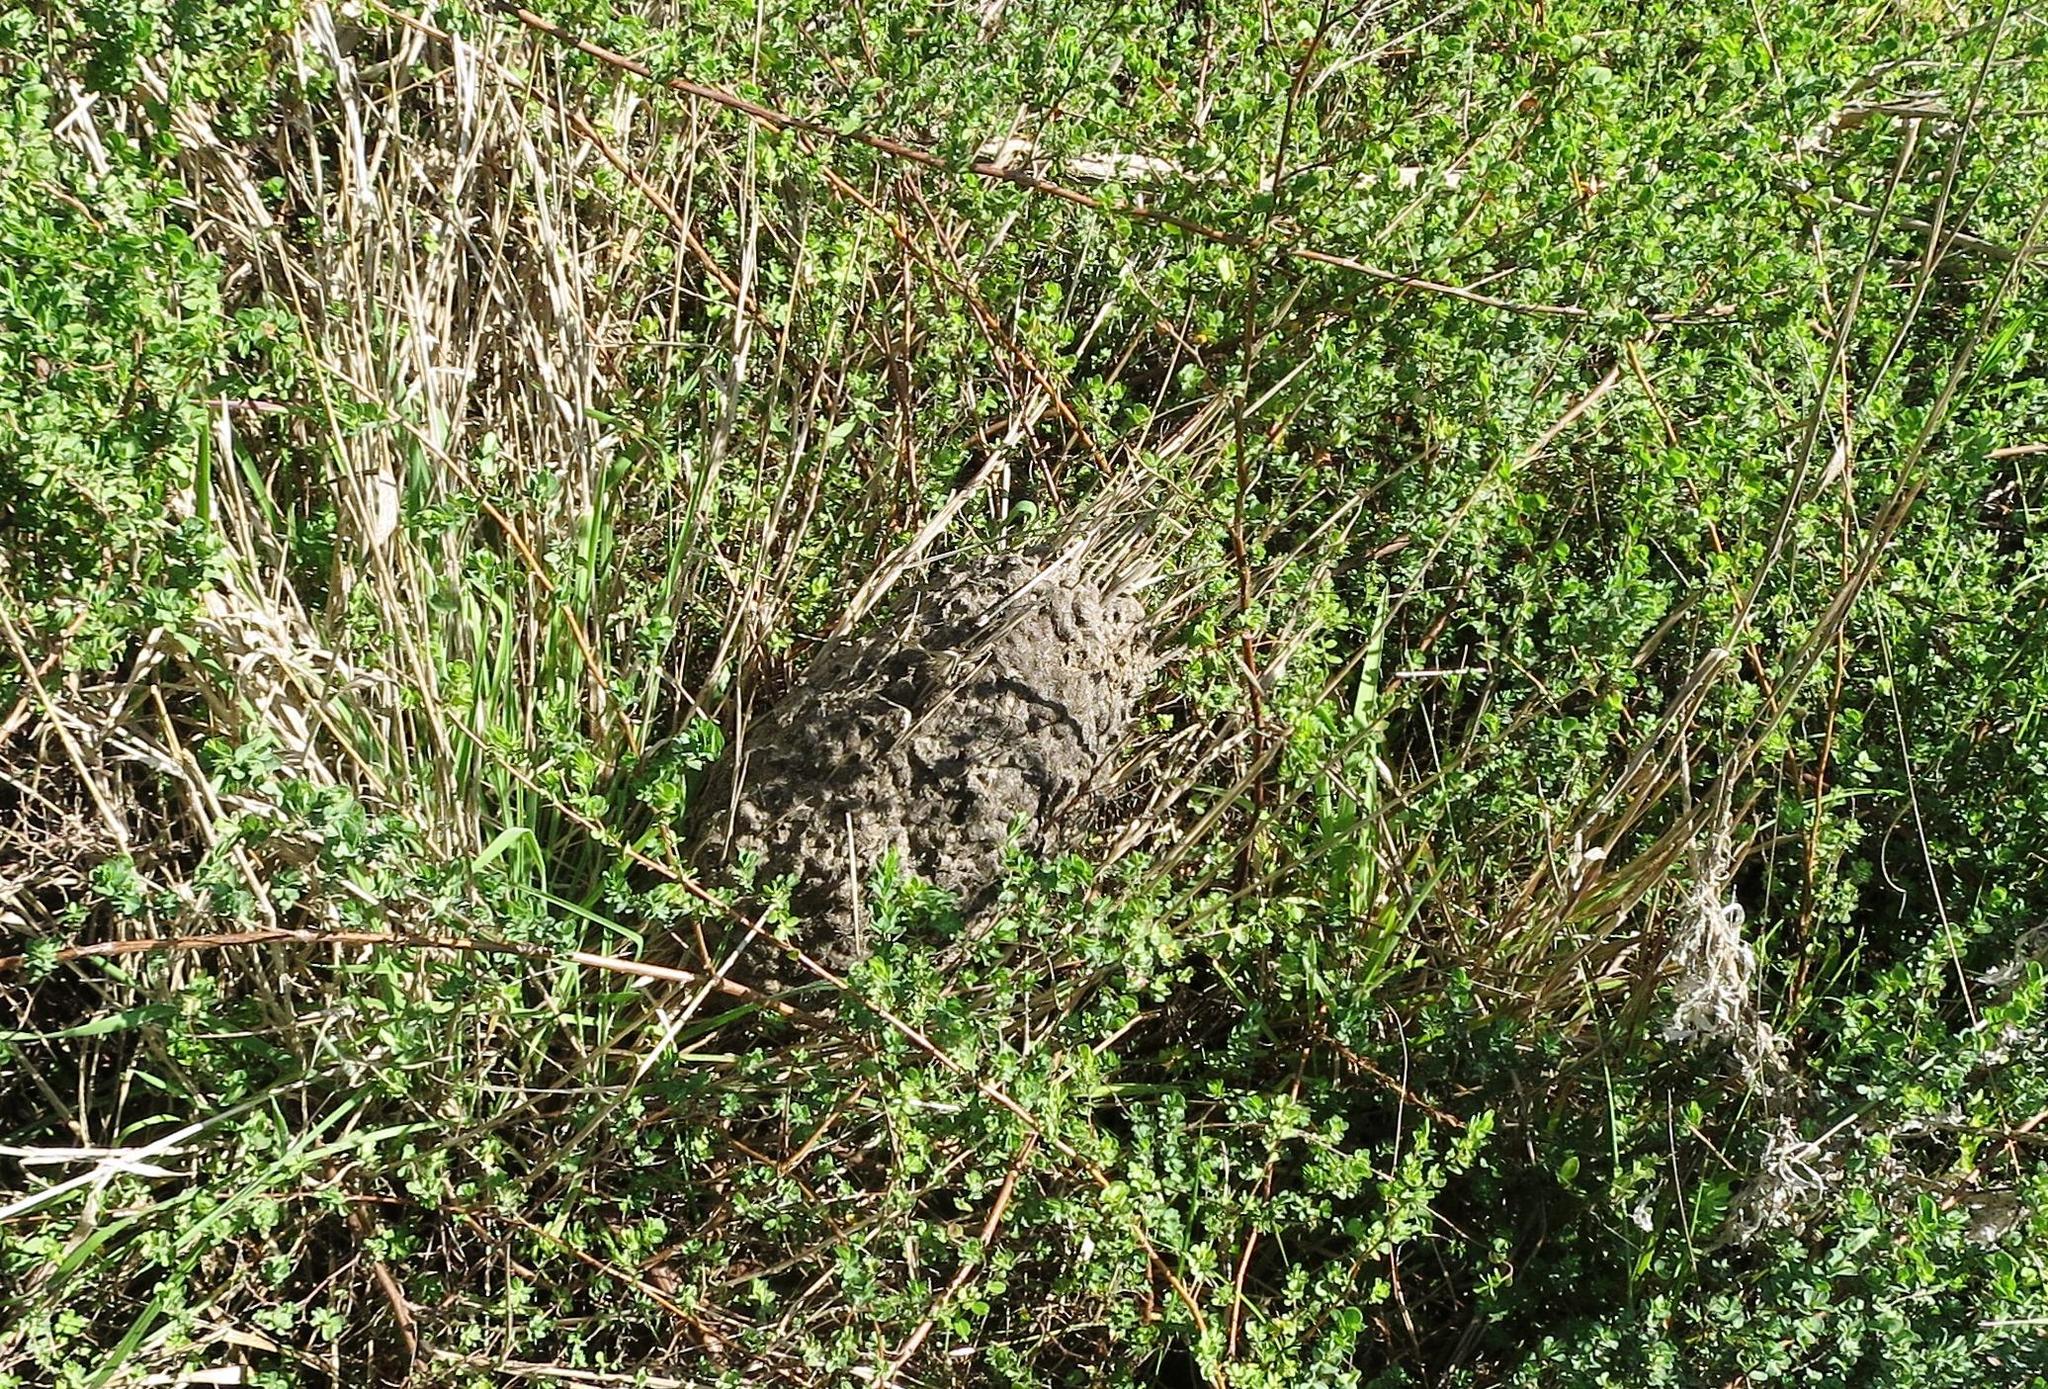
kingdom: Animalia
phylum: Arthropoda
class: Insecta
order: Hymenoptera
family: Formicidae
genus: Crematogaster
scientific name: Crematogaster peringueyi
